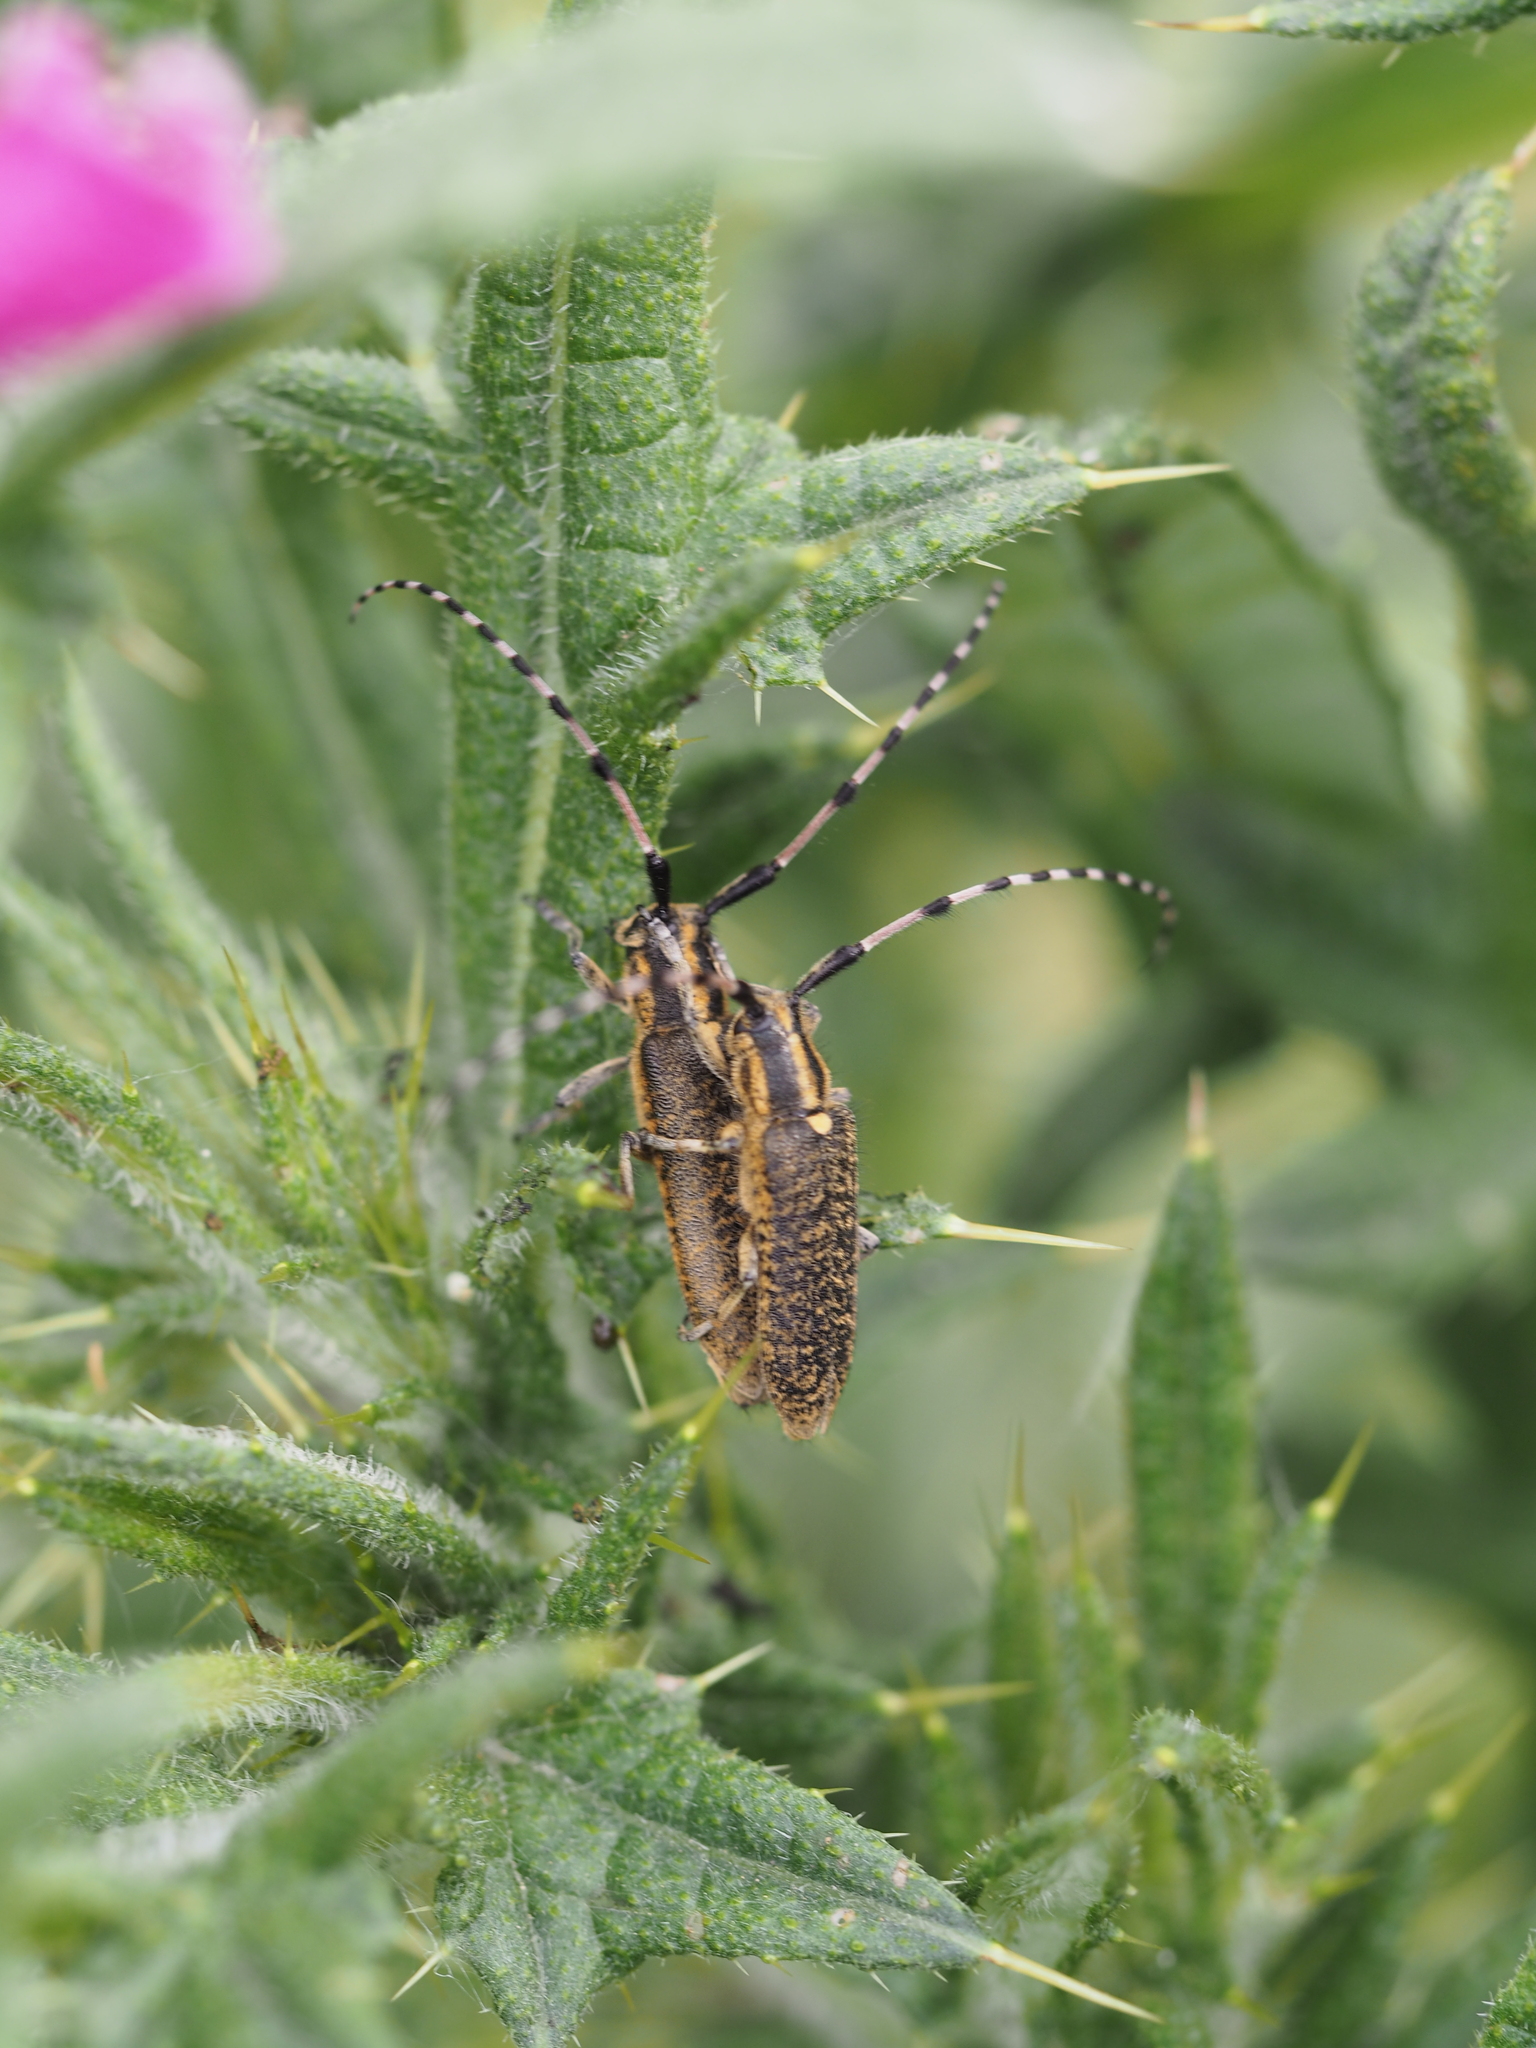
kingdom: Animalia
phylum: Arthropoda
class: Insecta
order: Coleoptera
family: Cerambycidae
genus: Agapanthia
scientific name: Agapanthia dahlii
